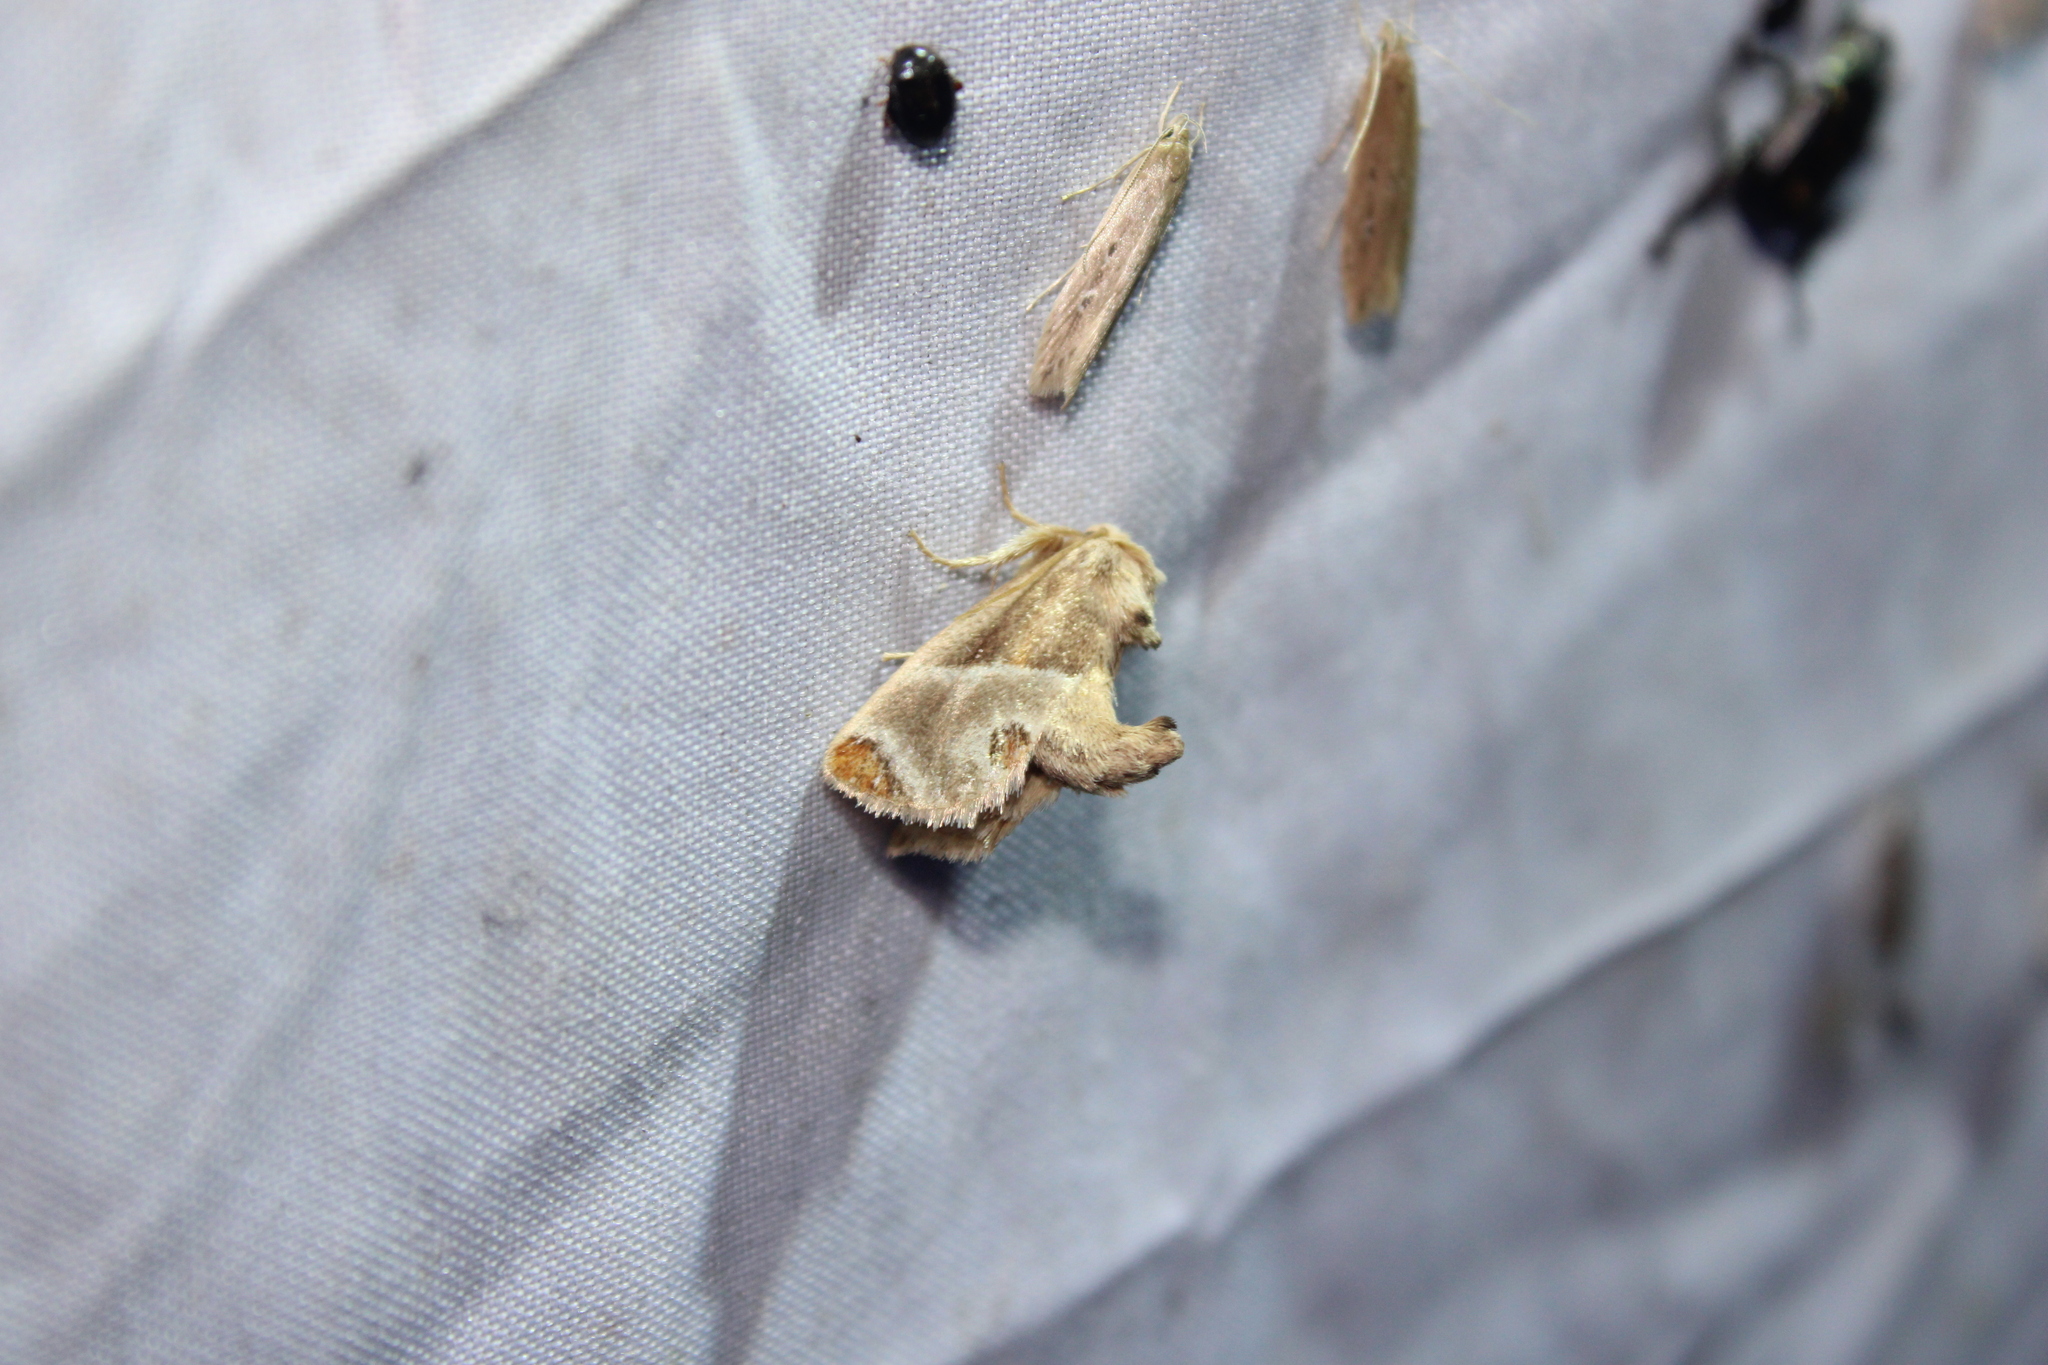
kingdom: Animalia
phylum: Arthropoda
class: Insecta
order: Lepidoptera
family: Limacodidae
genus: Apoda
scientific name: Apoda biguttata
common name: Shagreened slug moth
